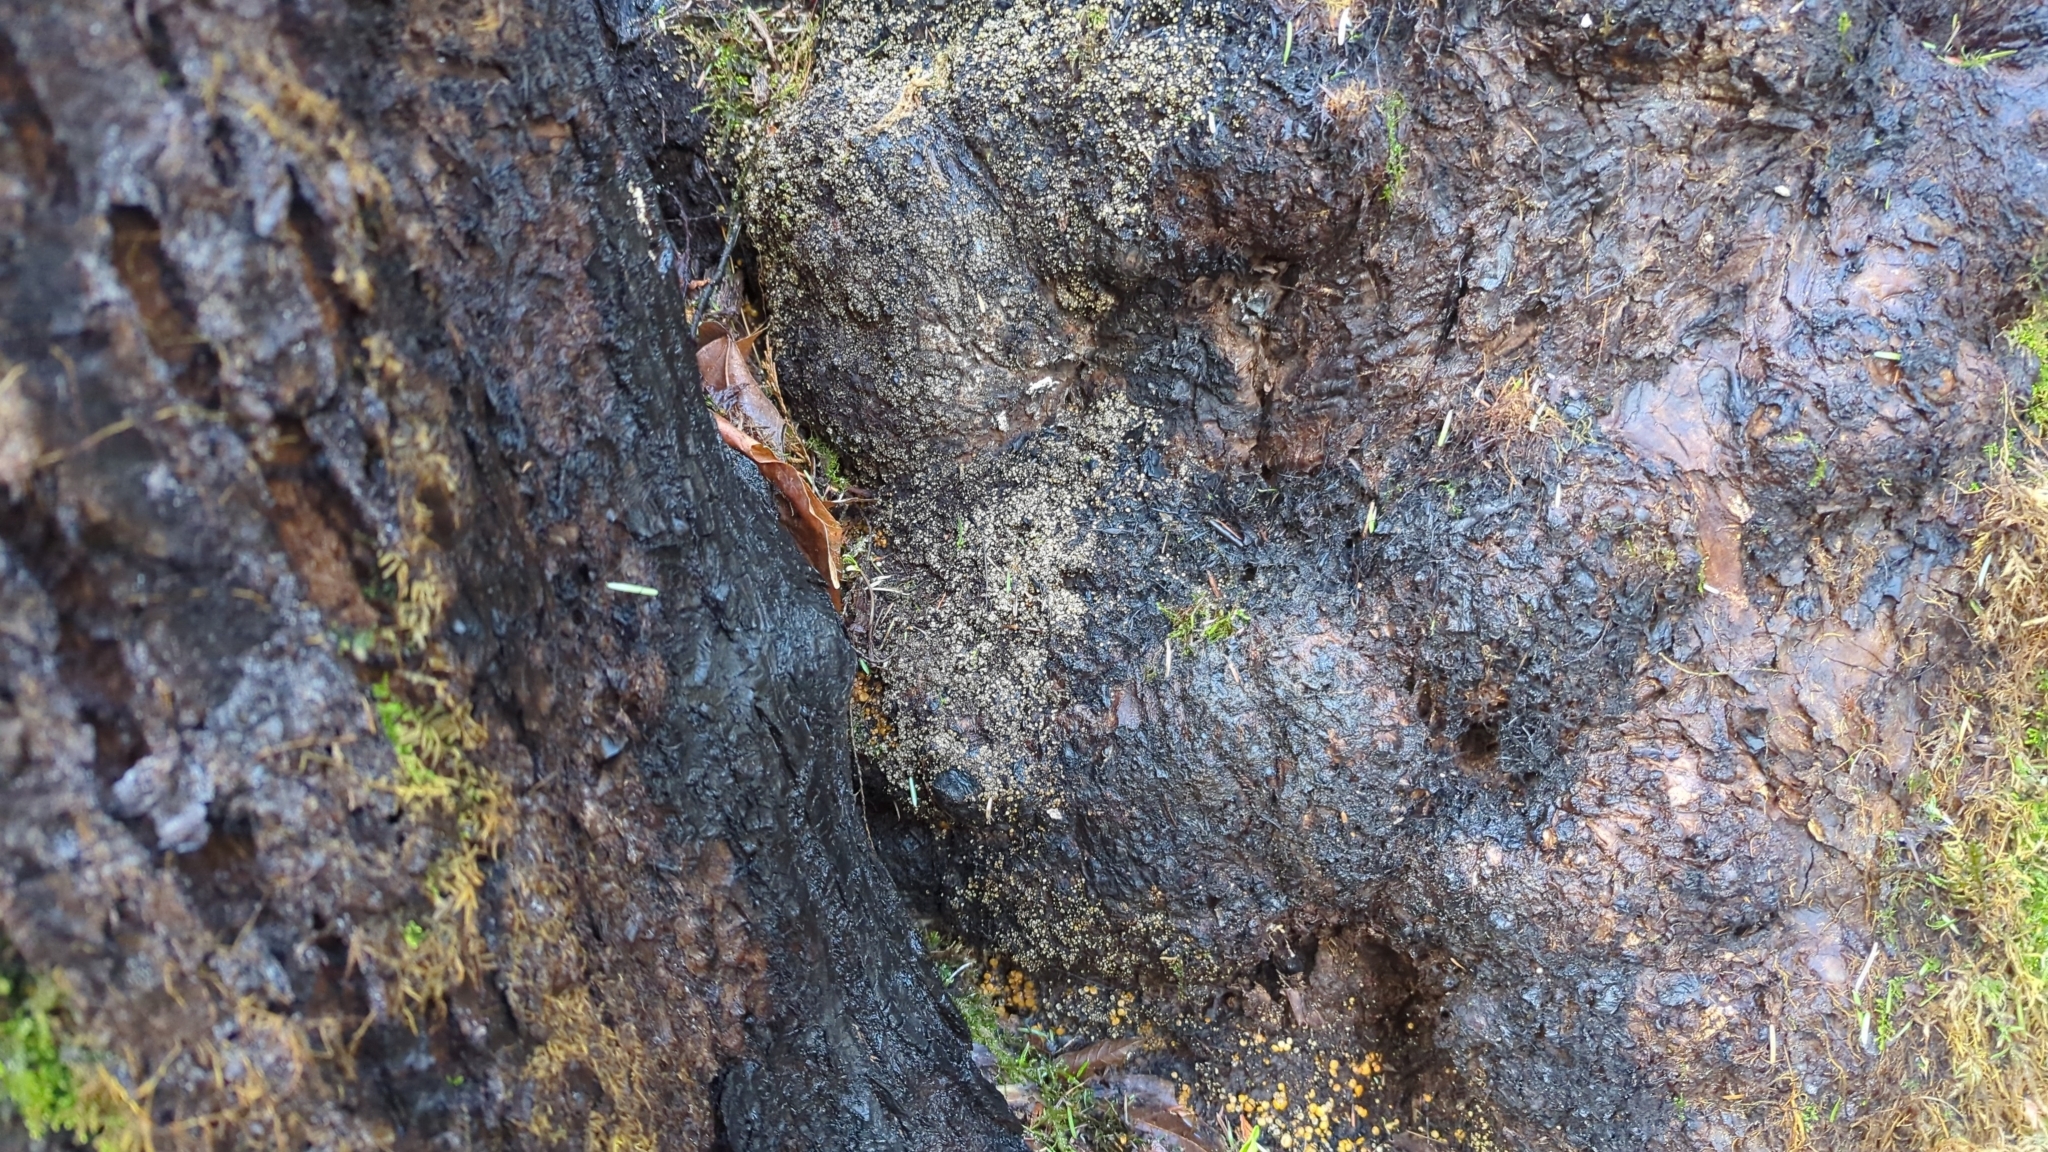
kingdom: Fungi
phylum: Ascomycota
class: Pezizomycetes
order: Pezizales
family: Pyronemataceae
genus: Anthracobia
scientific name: Anthracobia melaloma
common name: Charcoal eyelash
